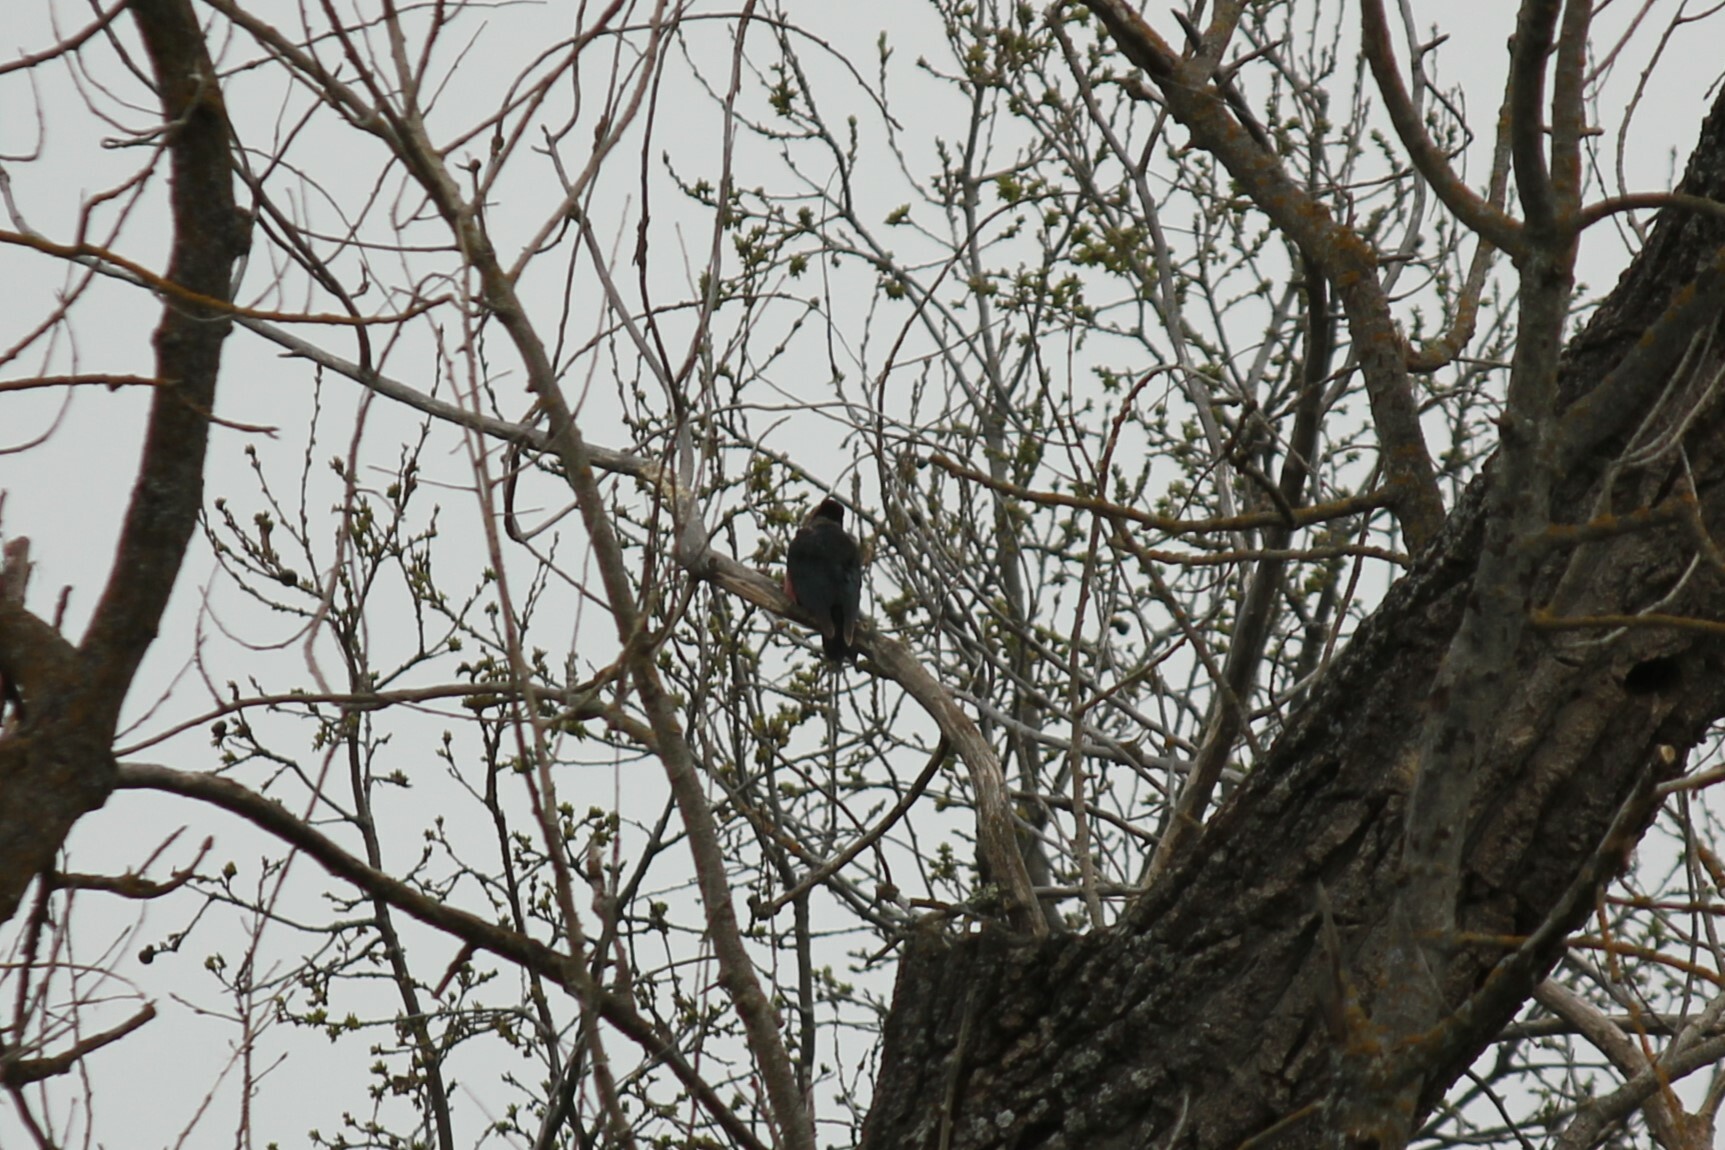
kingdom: Animalia
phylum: Chordata
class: Aves
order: Piciformes
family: Picidae
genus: Melanerpes
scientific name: Melanerpes lewis
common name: Lewis's woodpecker
